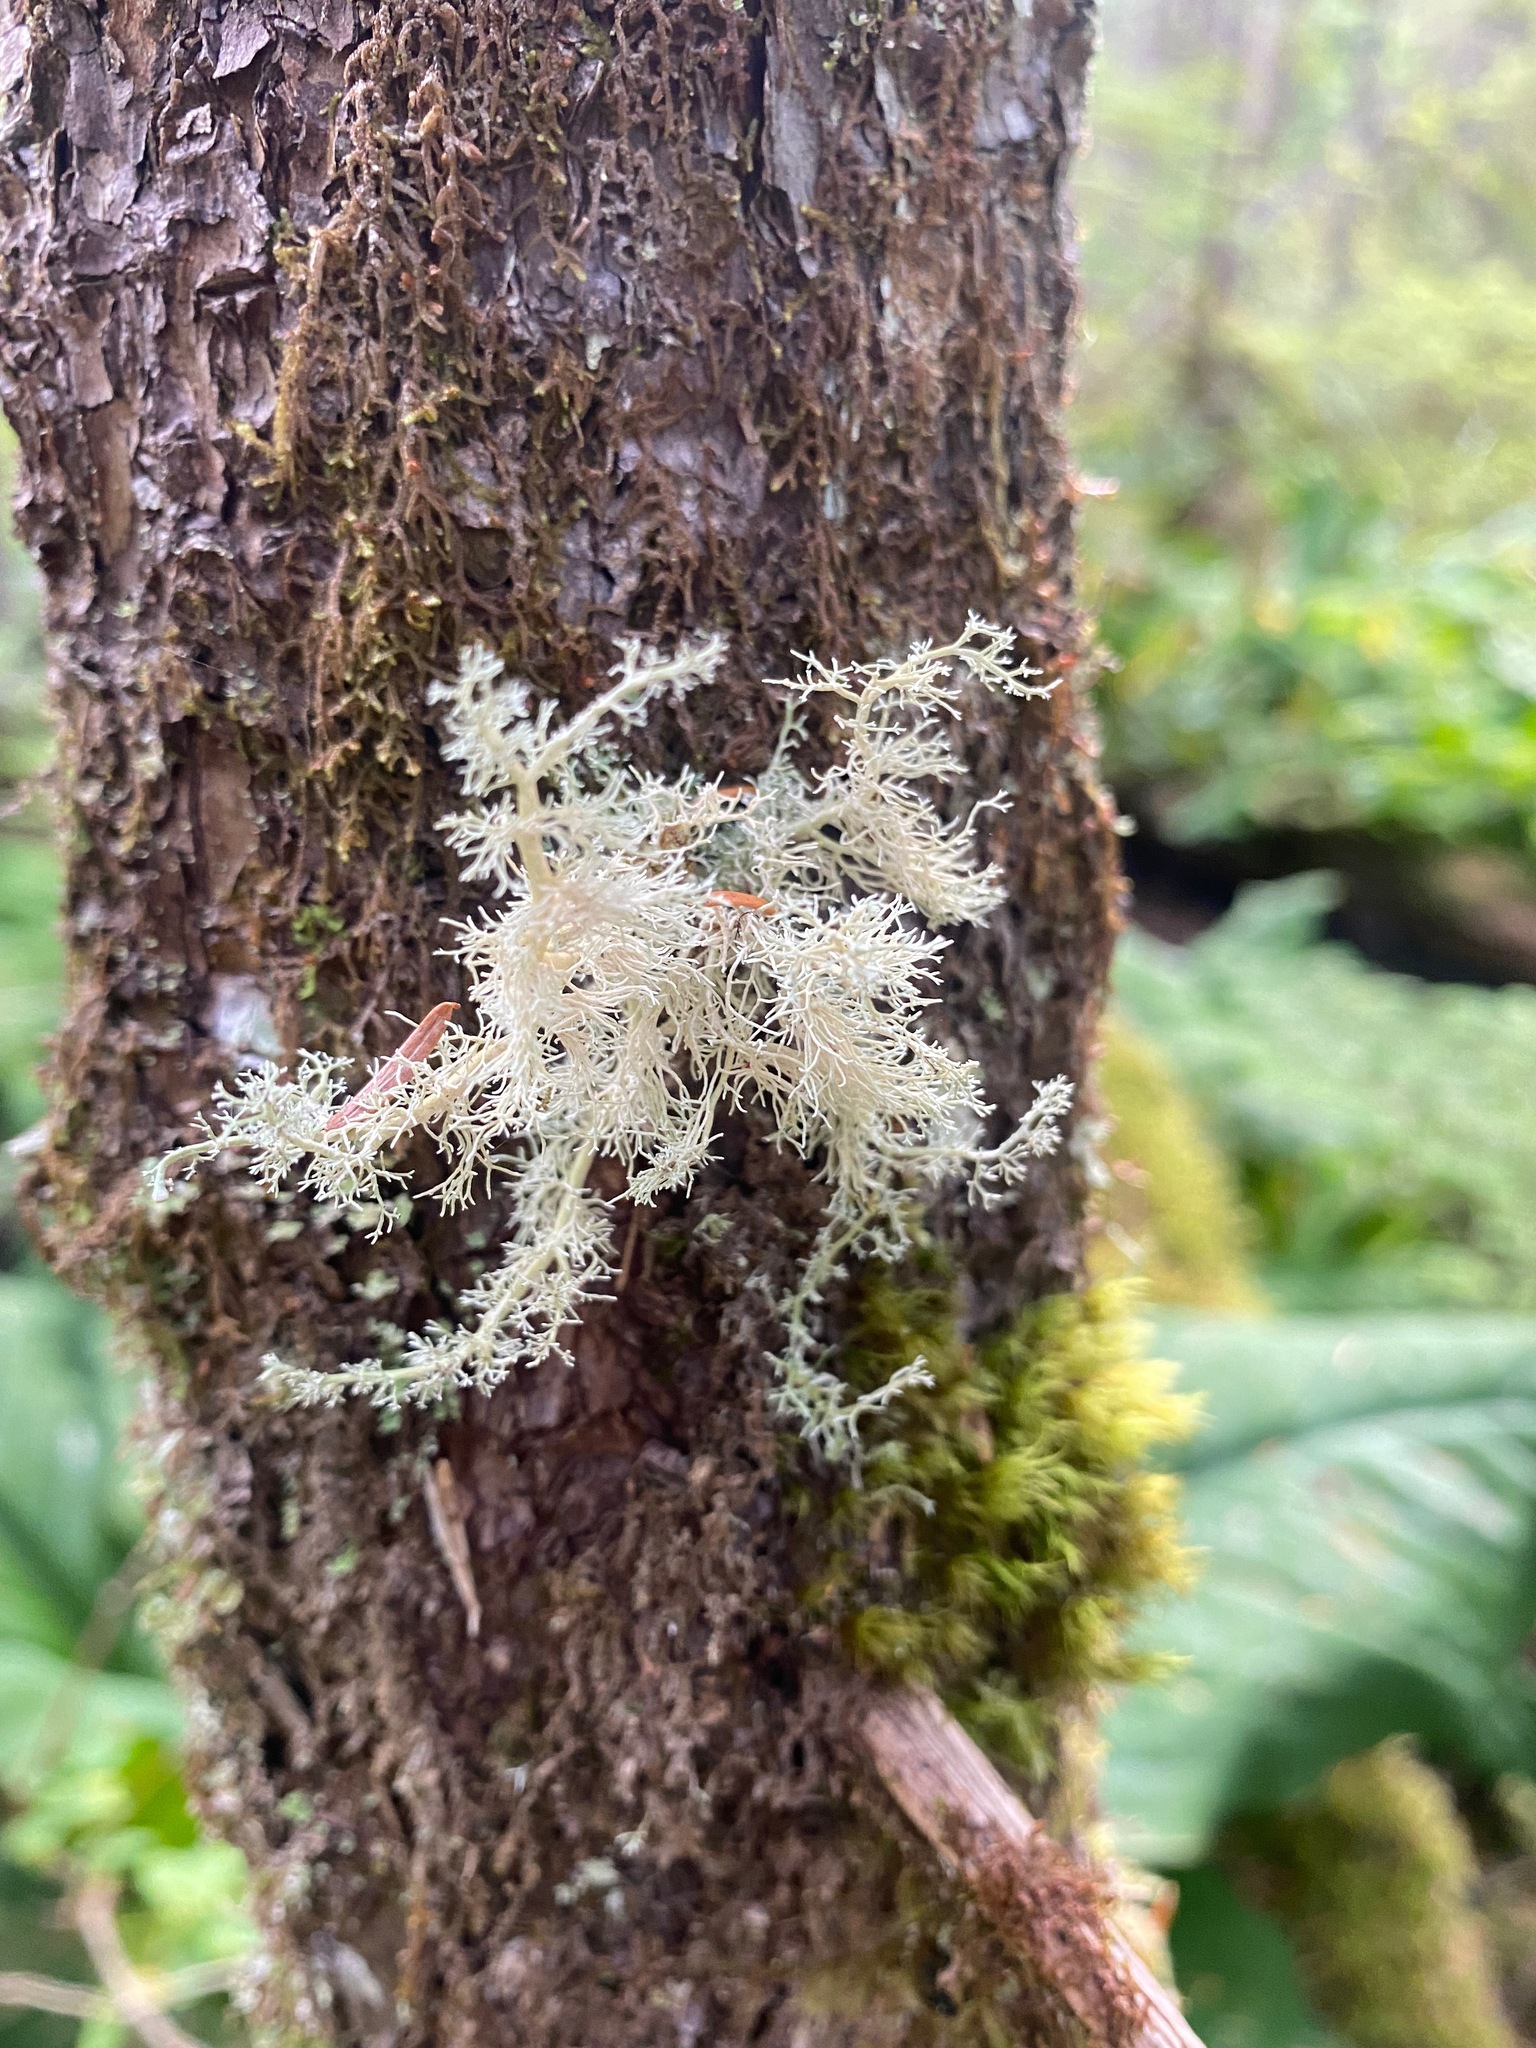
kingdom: Fungi
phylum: Ascomycota
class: Lecanoromycetes
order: Lecanorales
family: Sphaerophoraceae
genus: Sphaerophorus
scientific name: Sphaerophorus globosus
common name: Globe ball lichen
